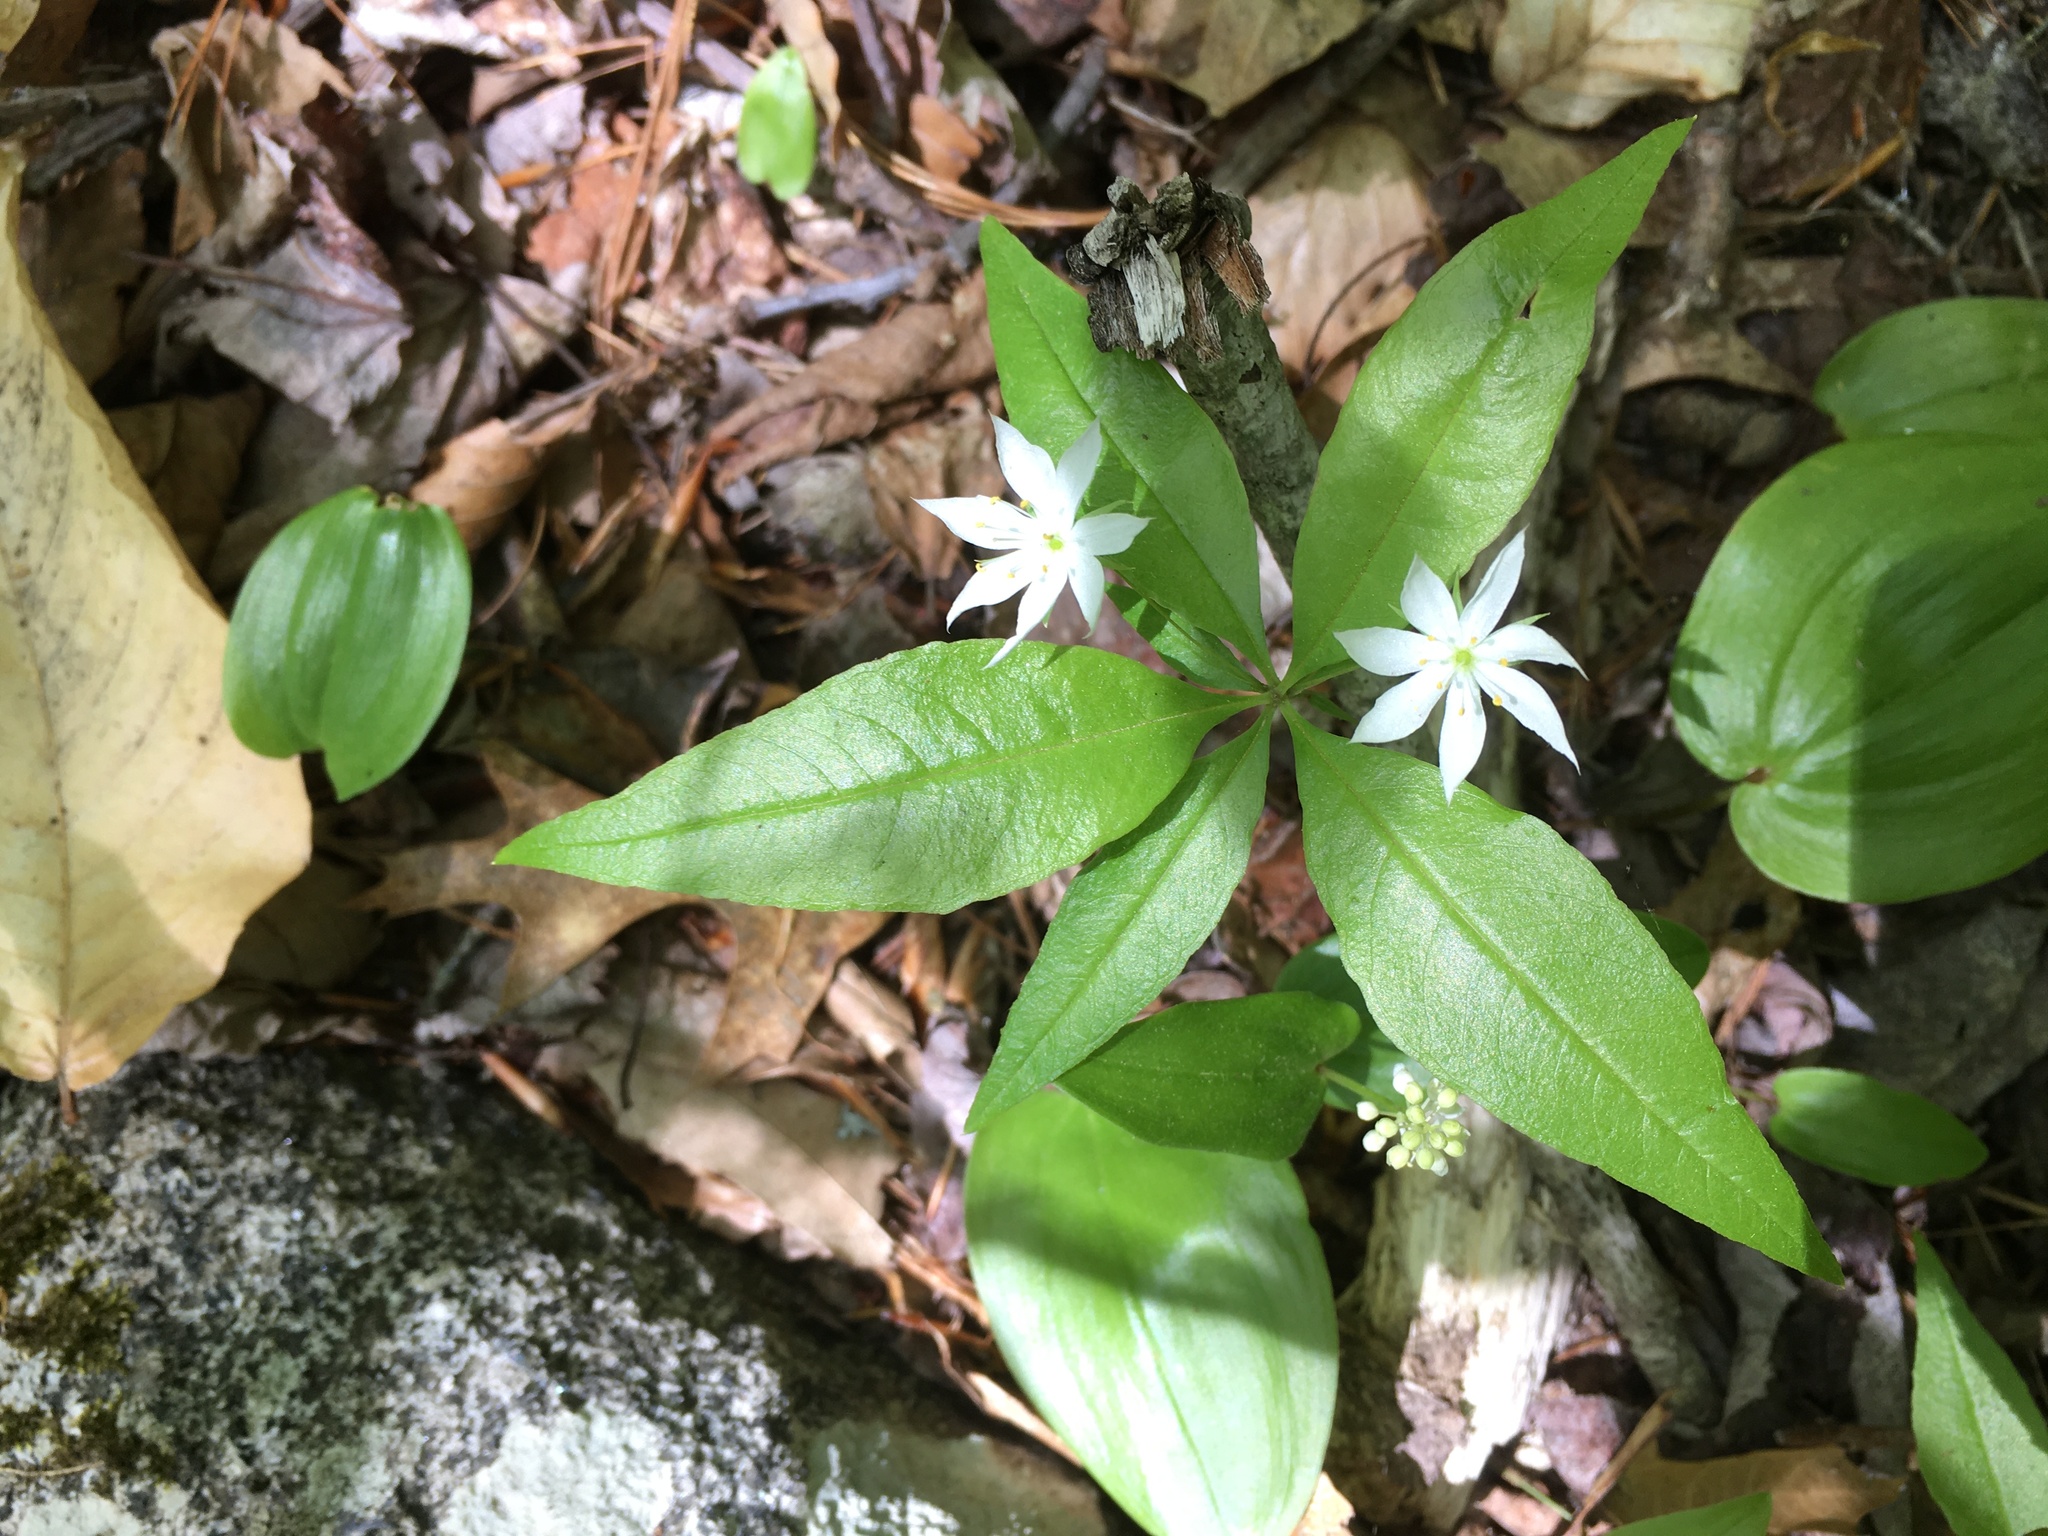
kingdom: Plantae
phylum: Tracheophyta
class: Magnoliopsida
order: Ericales
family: Primulaceae
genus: Lysimachia
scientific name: Lysimachia borealis
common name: American starflower
